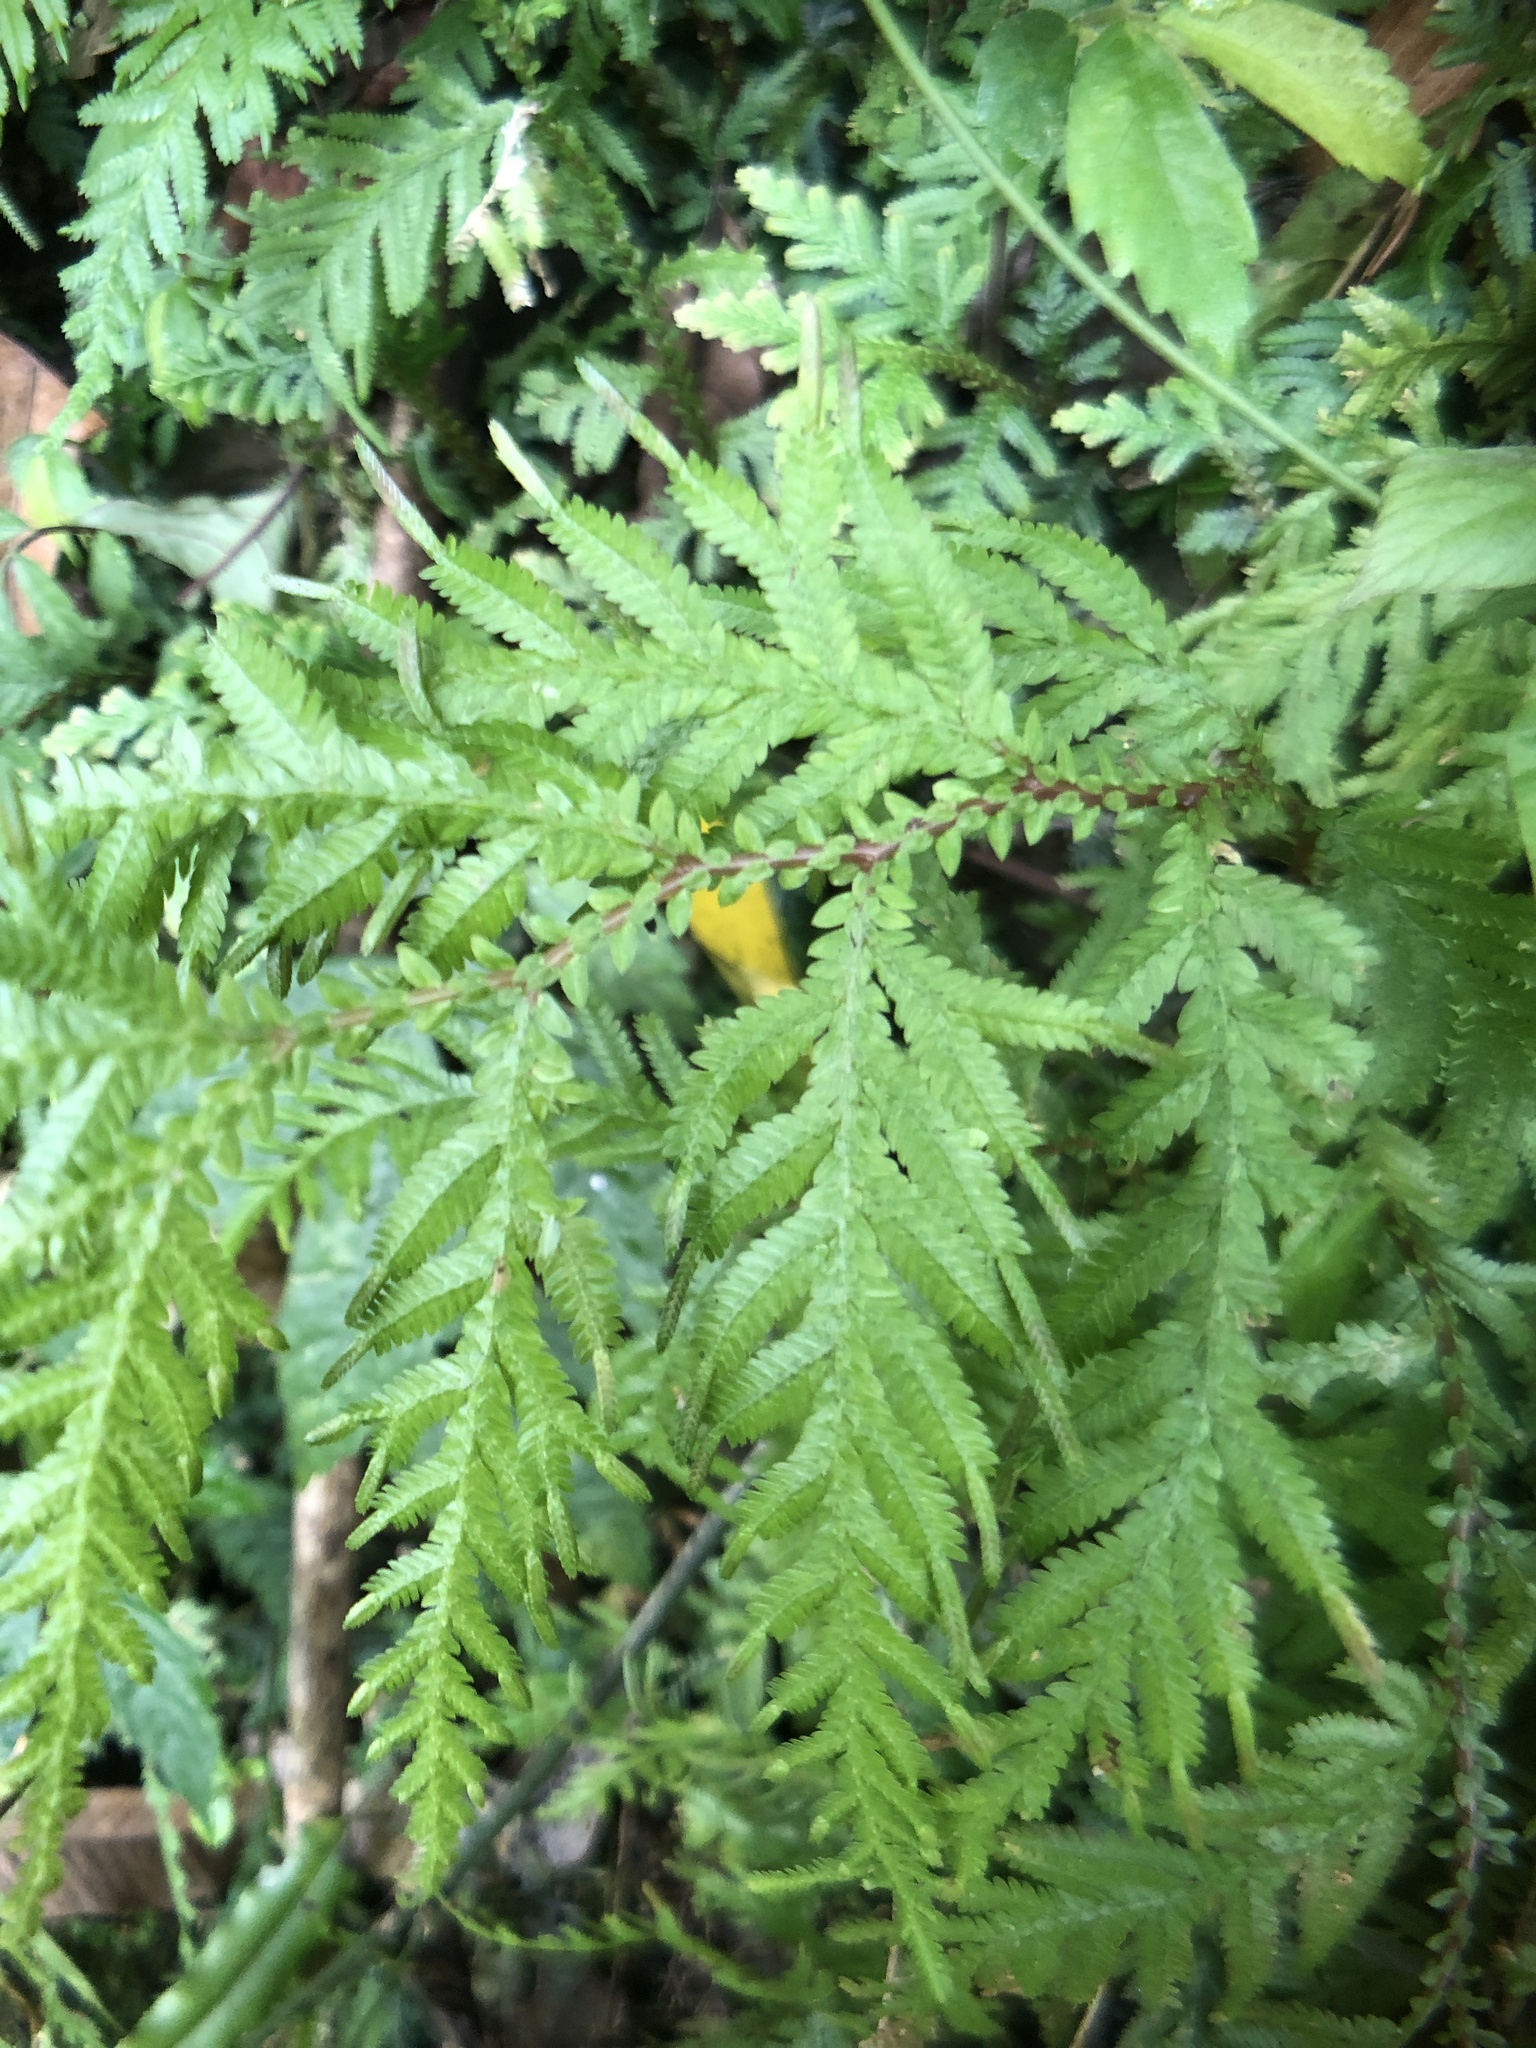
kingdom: Plantae
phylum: Tracheophyta
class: Lycopodiopsida
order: Selaginellales
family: Selaginellaceae
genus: Selaginella
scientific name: Selaginella delicatula
